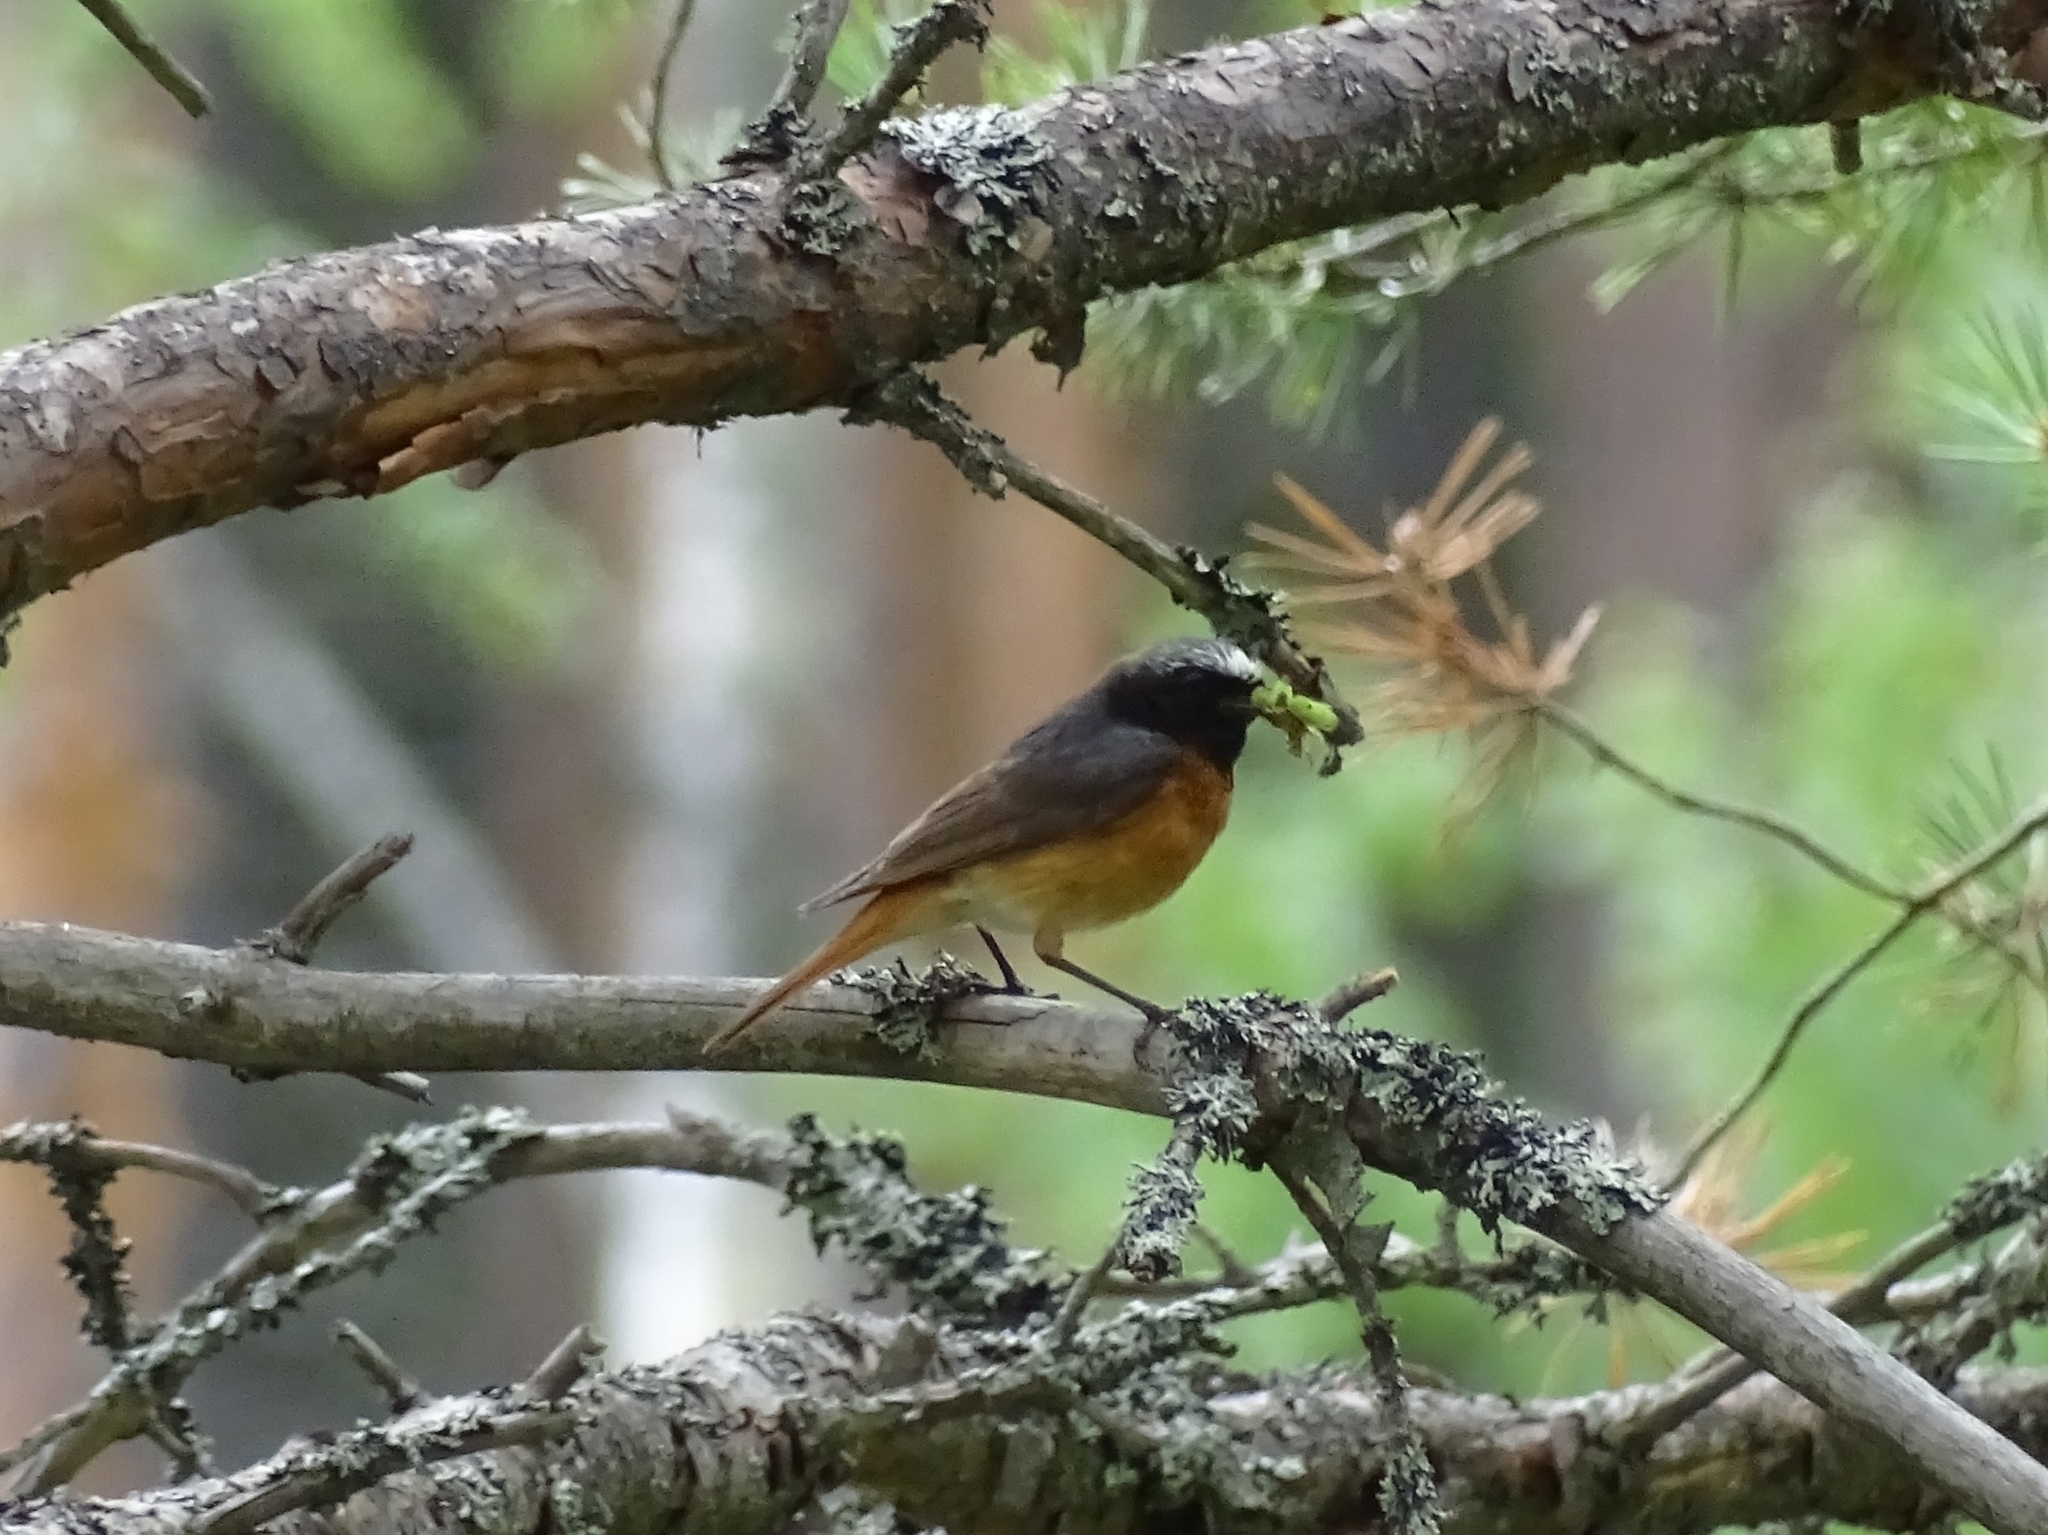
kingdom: Animalia
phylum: Chordata
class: Aves
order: Passeriformes
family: Muscicapidae
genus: Phoenicurus
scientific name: Phoenicurus phoenicurus
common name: Common redstart
